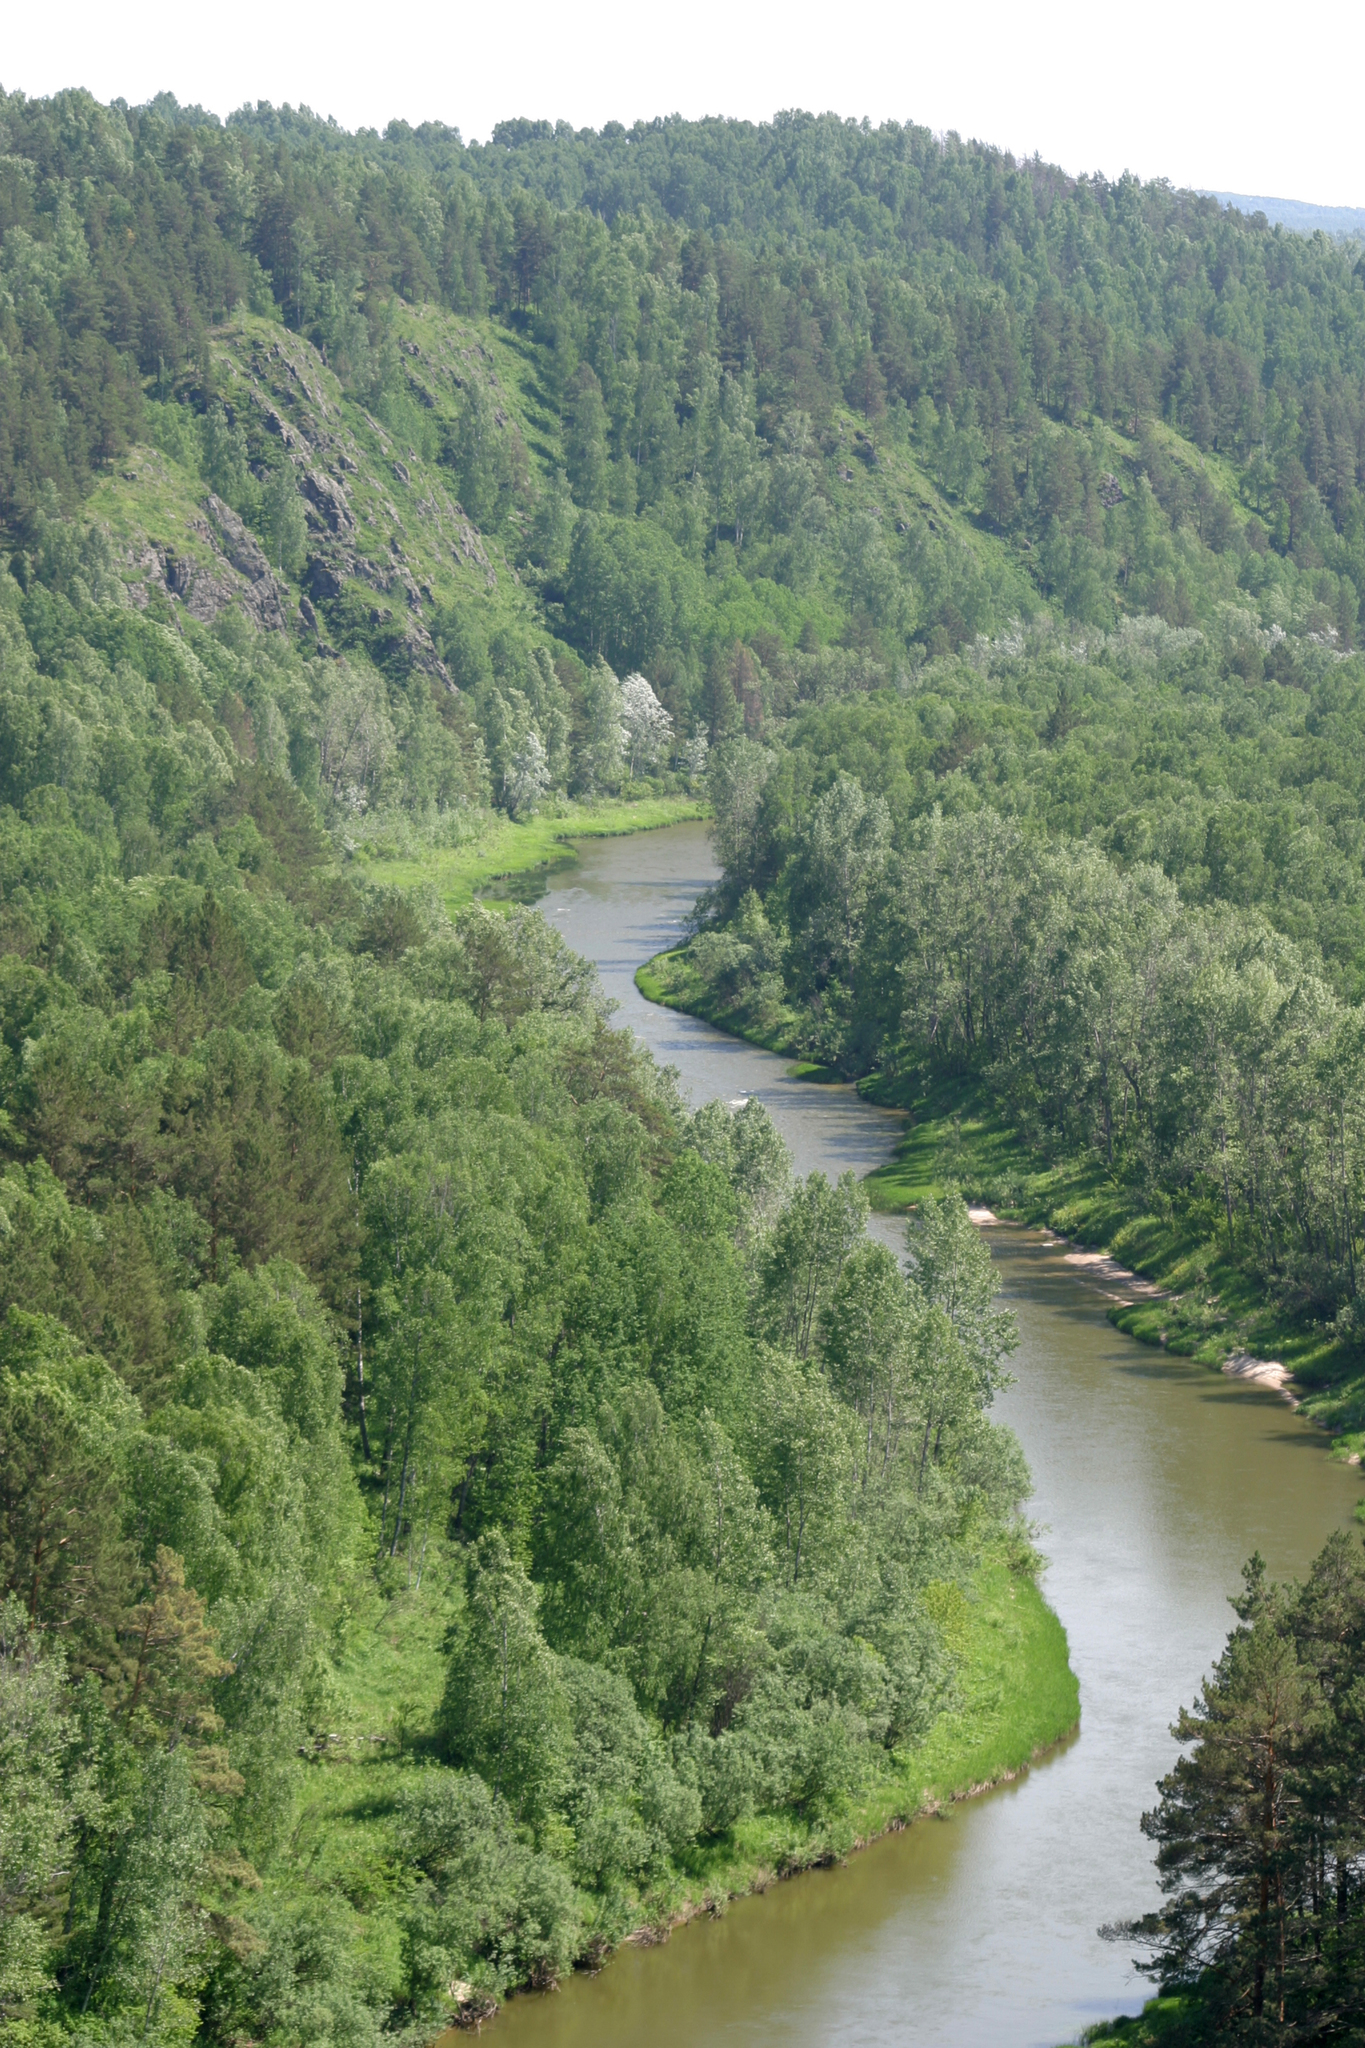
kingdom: Plantae
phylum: Tracheophyta
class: Pinopsida
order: Pinales
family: Pinaceae
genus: Pinus
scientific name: Pinus sylvestris
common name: Scots pine
